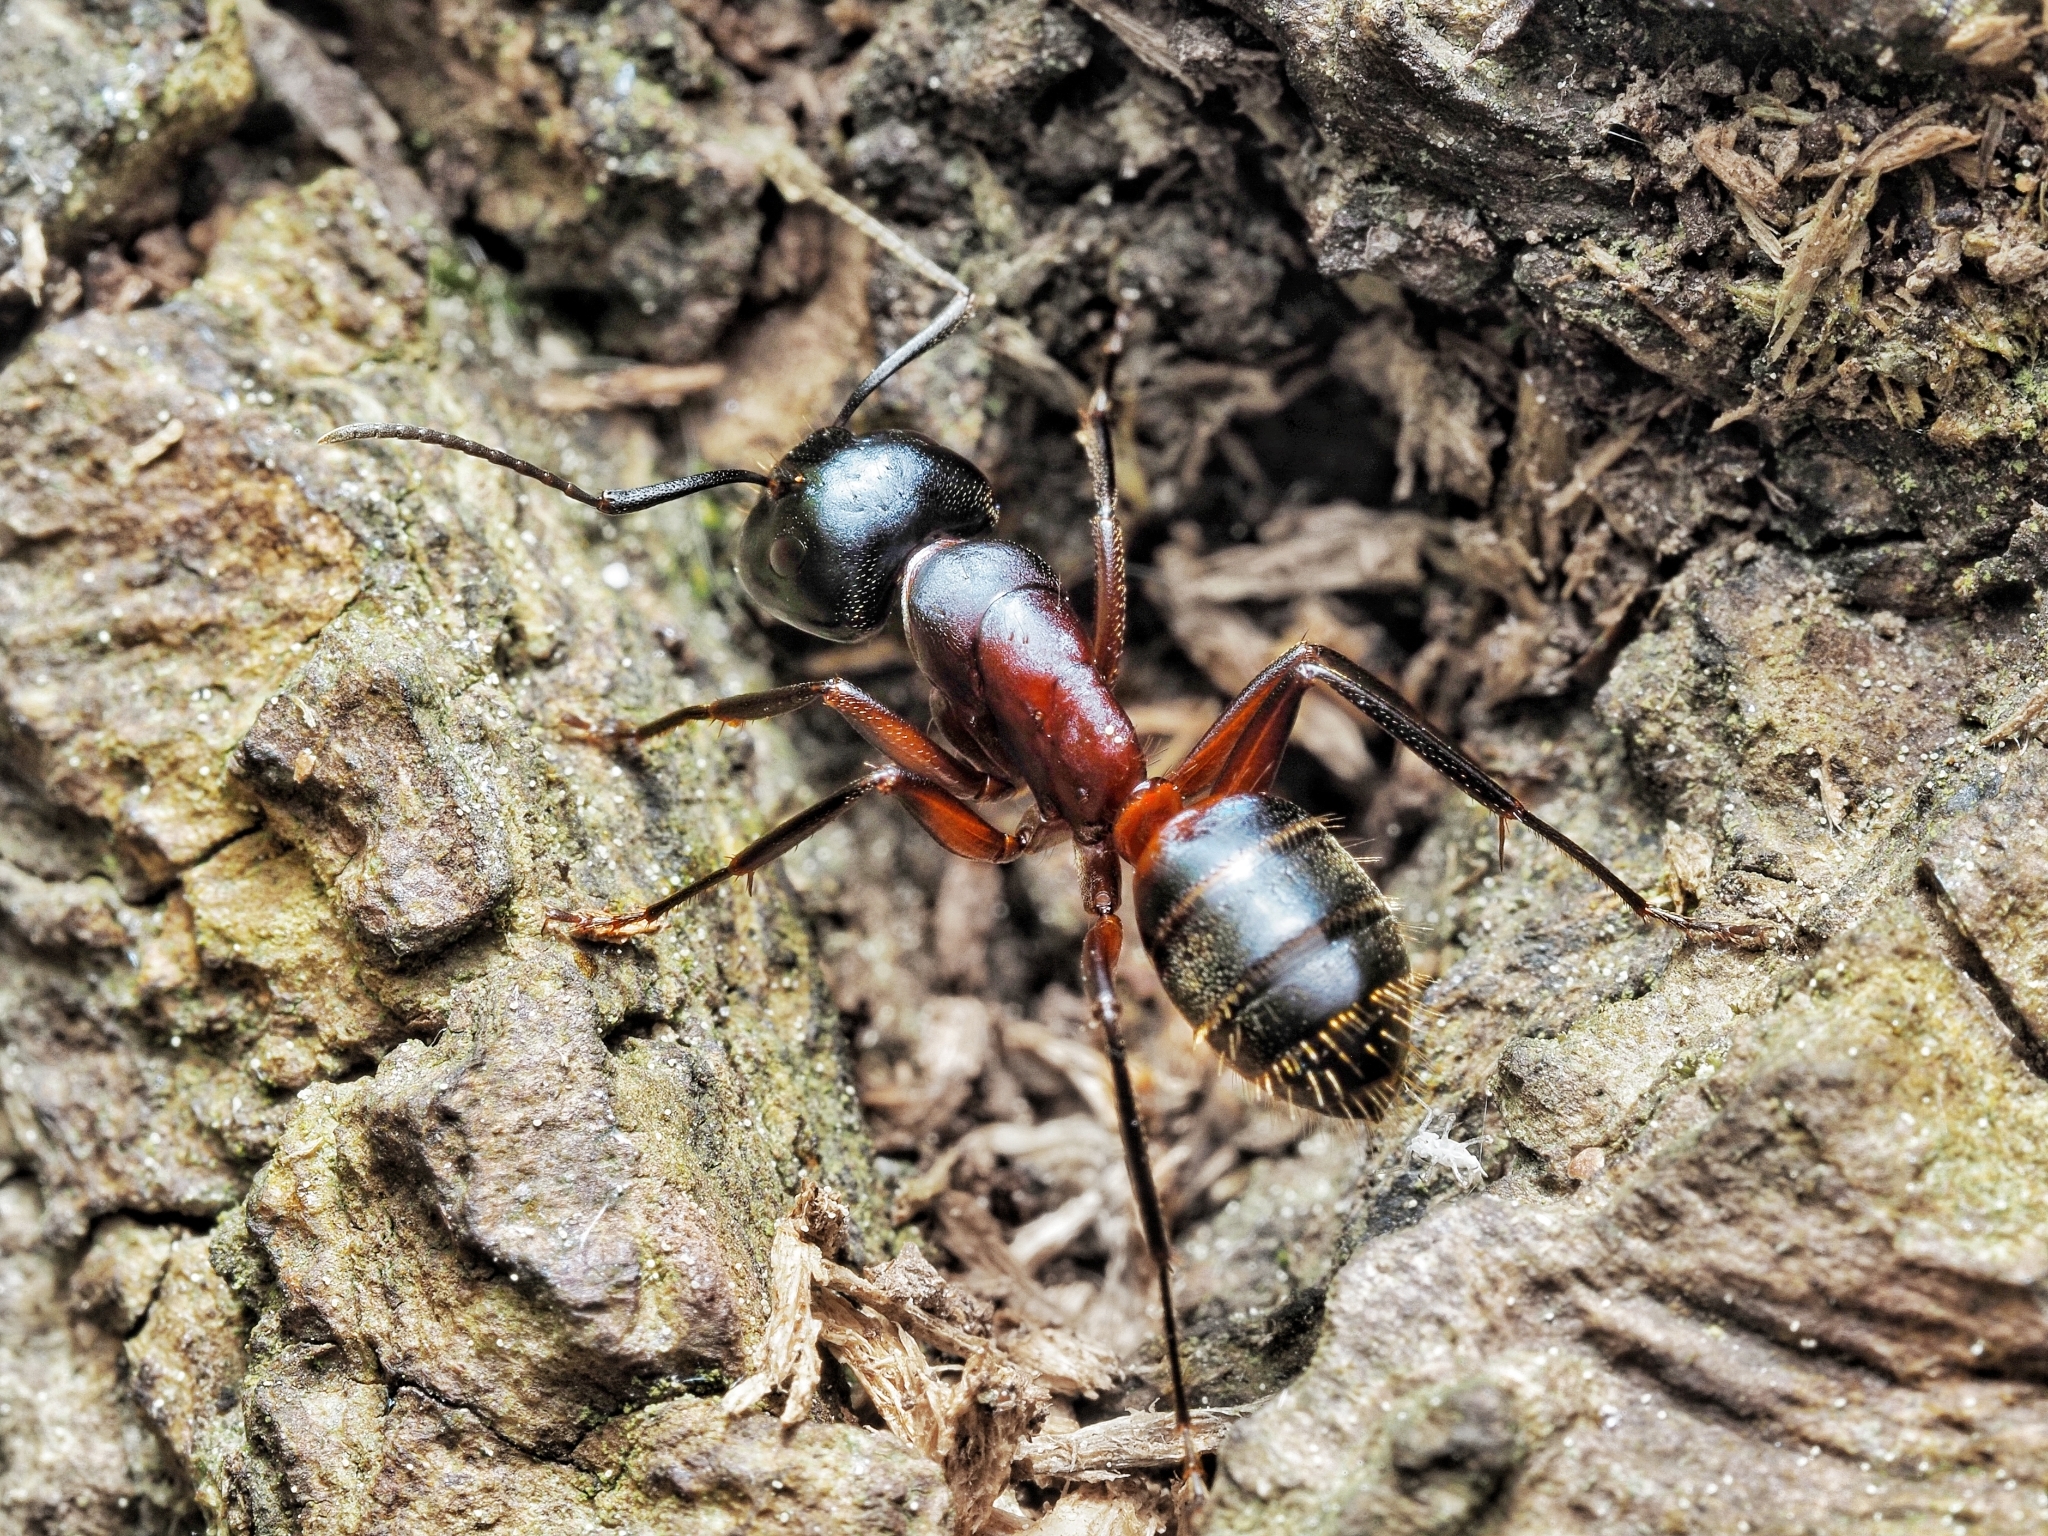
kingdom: Animalia
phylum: Arthropoda
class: Insecta
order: Hymenoptera
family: Formicidae
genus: Camponotus
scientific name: Camponotus ligniperdus
